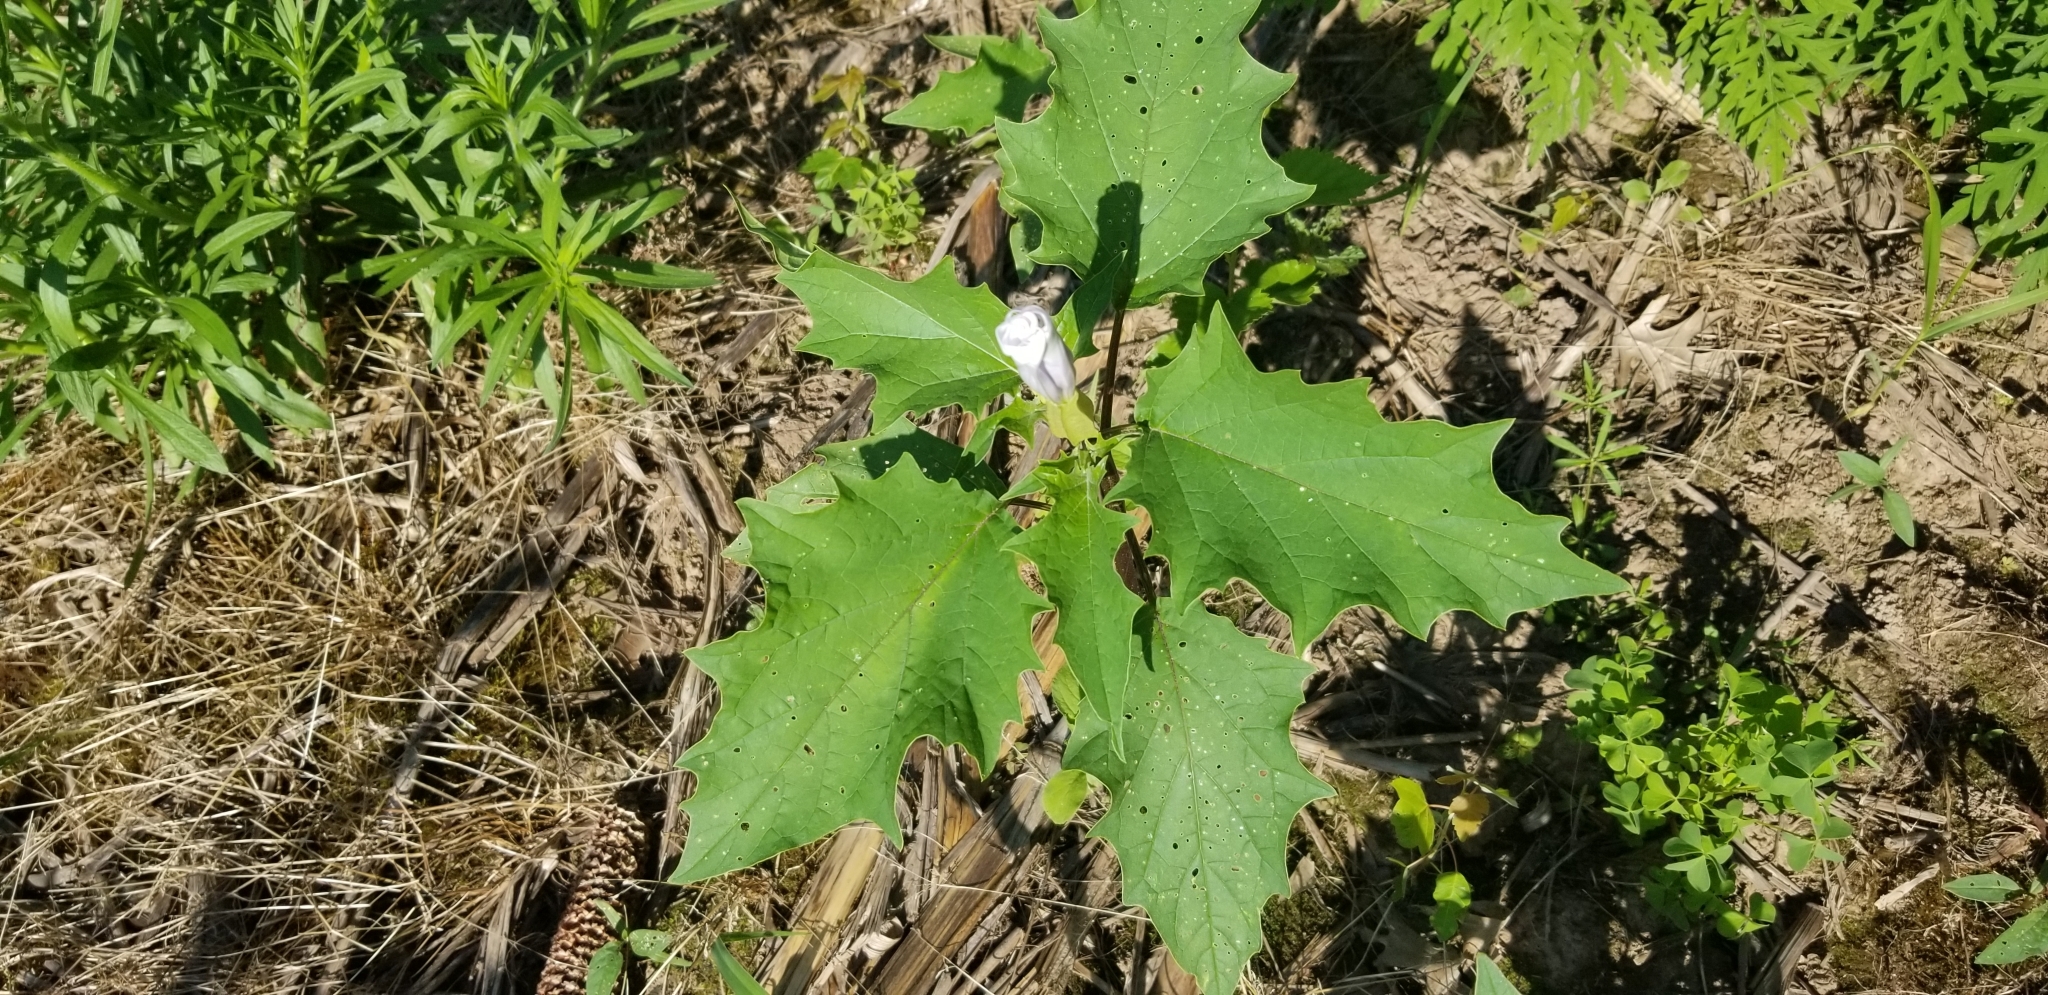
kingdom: Plantae
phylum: Tracheophyta
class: Magnoliopsida
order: Solanales
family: Solanaceae
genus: Datura
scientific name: Datura stramonium
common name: Thorn-apple
